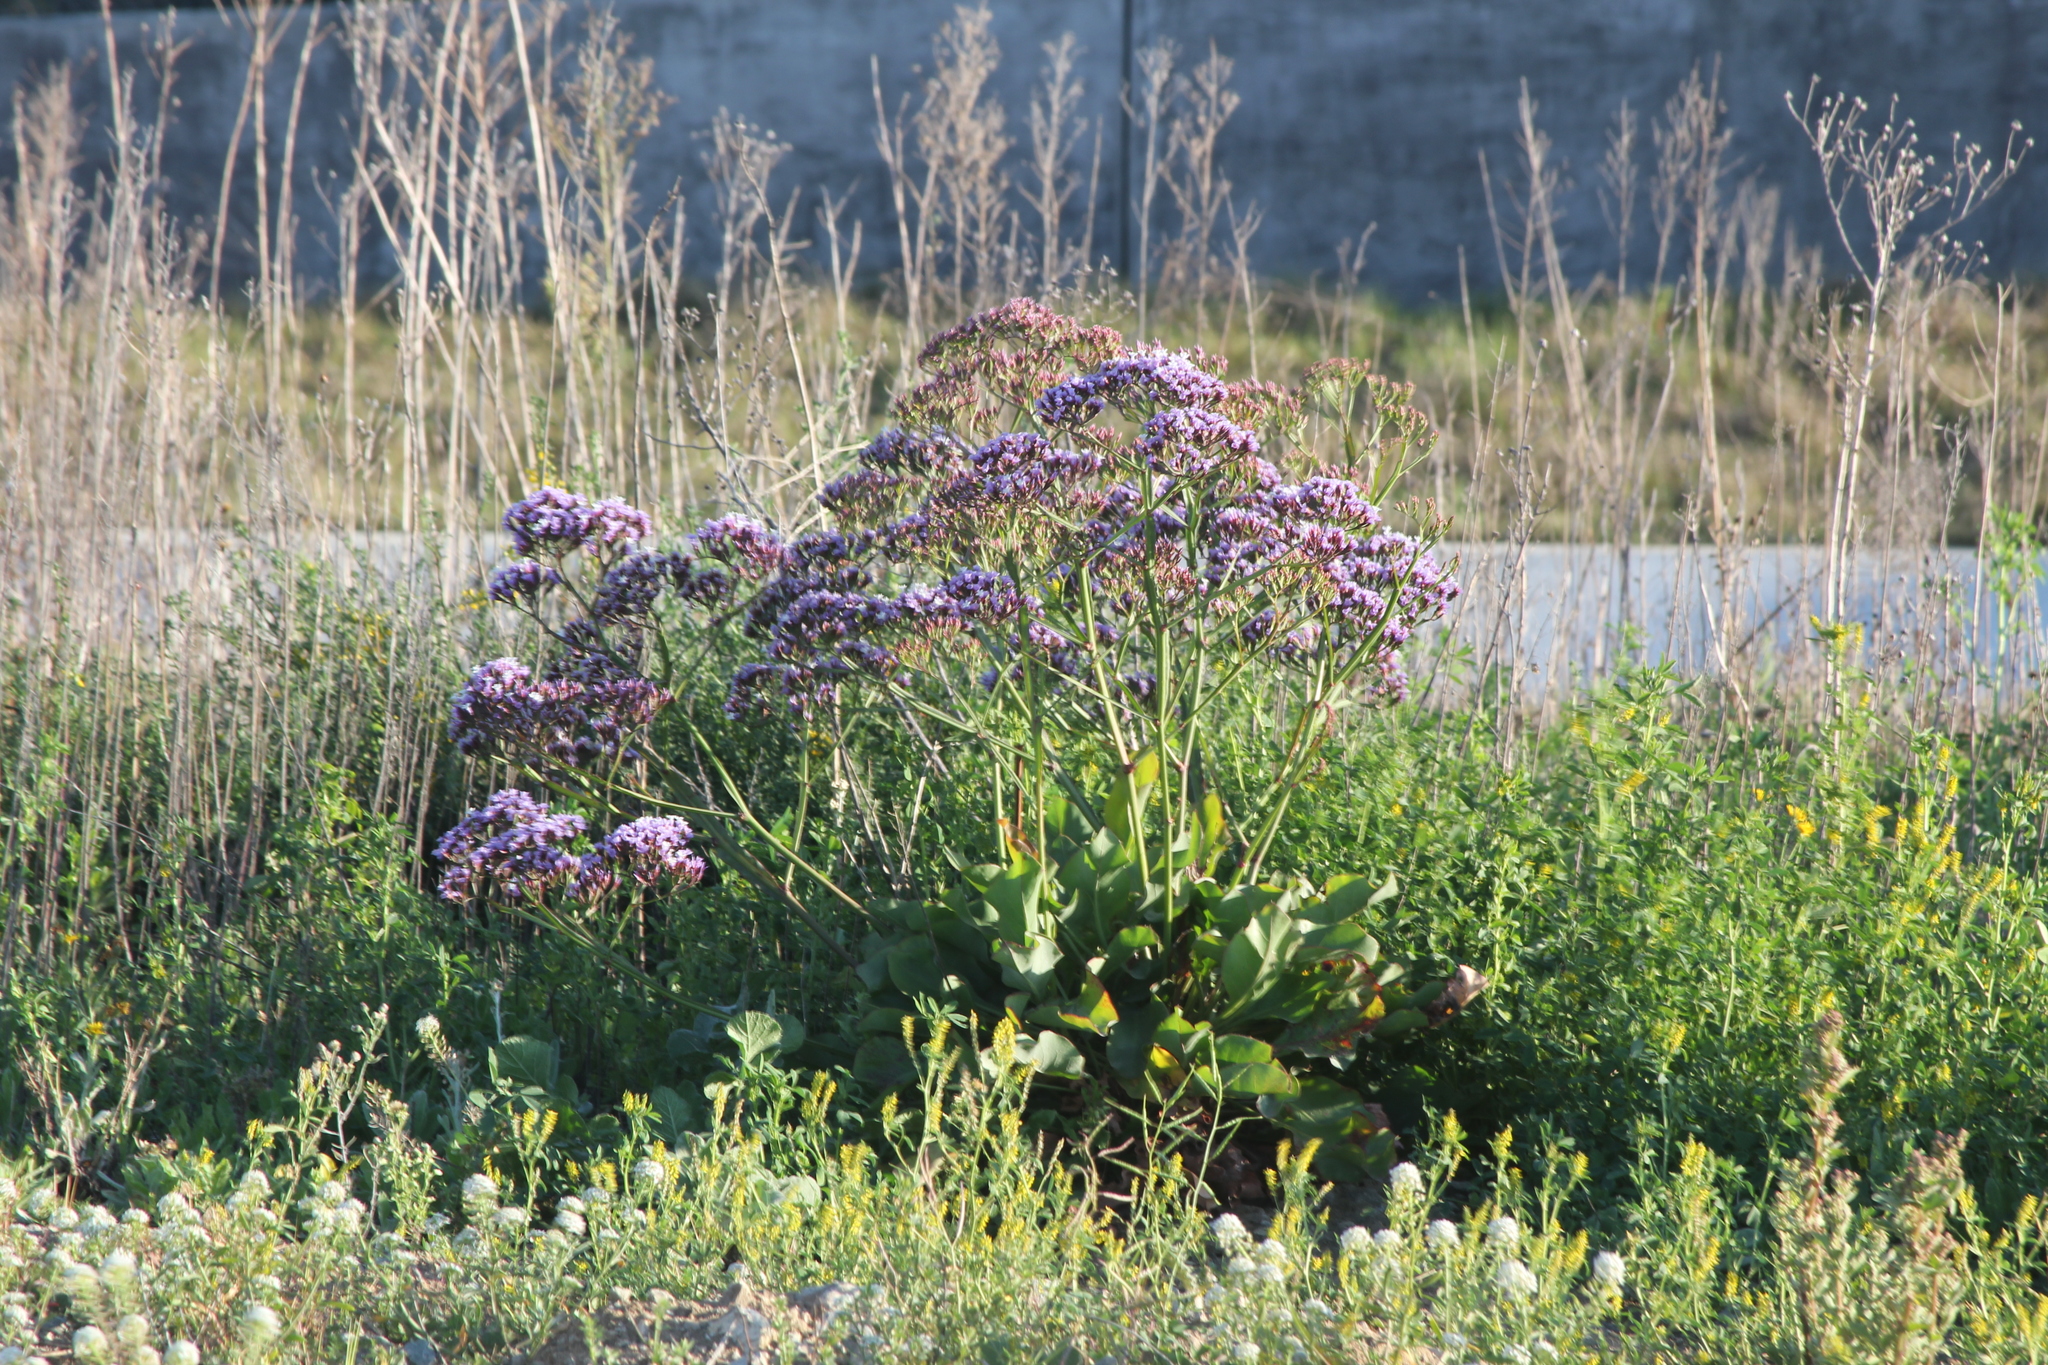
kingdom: Plantae
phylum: Tracheophyta
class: Magnoliopsida
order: Caryophyllales
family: Plumbaginaceae
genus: Limonium
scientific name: Limonium perezii
